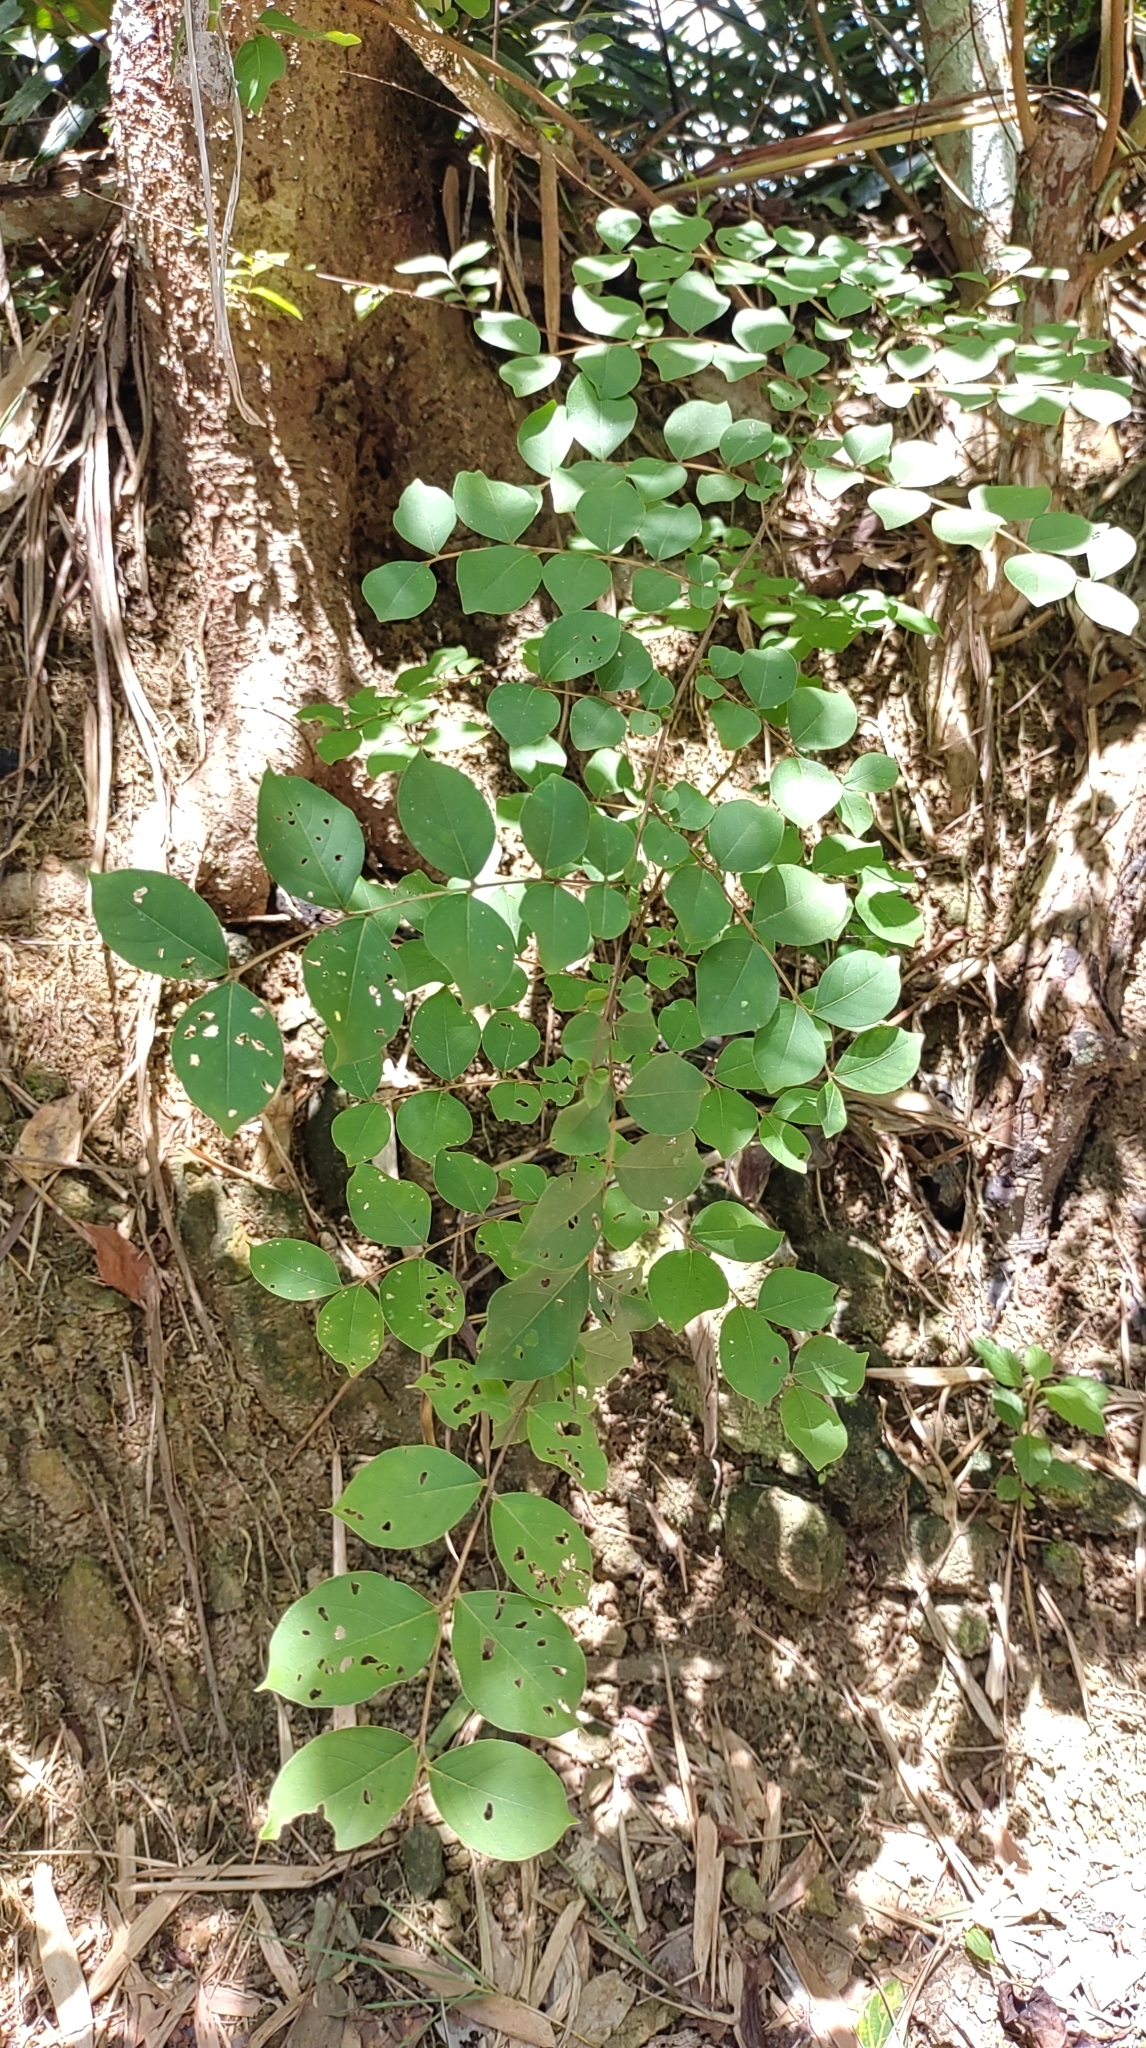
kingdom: Plantae
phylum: Tracheophyta
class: Magnoliopsida
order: Myrtales
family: Lythraceae
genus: Lagerstroemia
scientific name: Lagerstroemia subcostata
